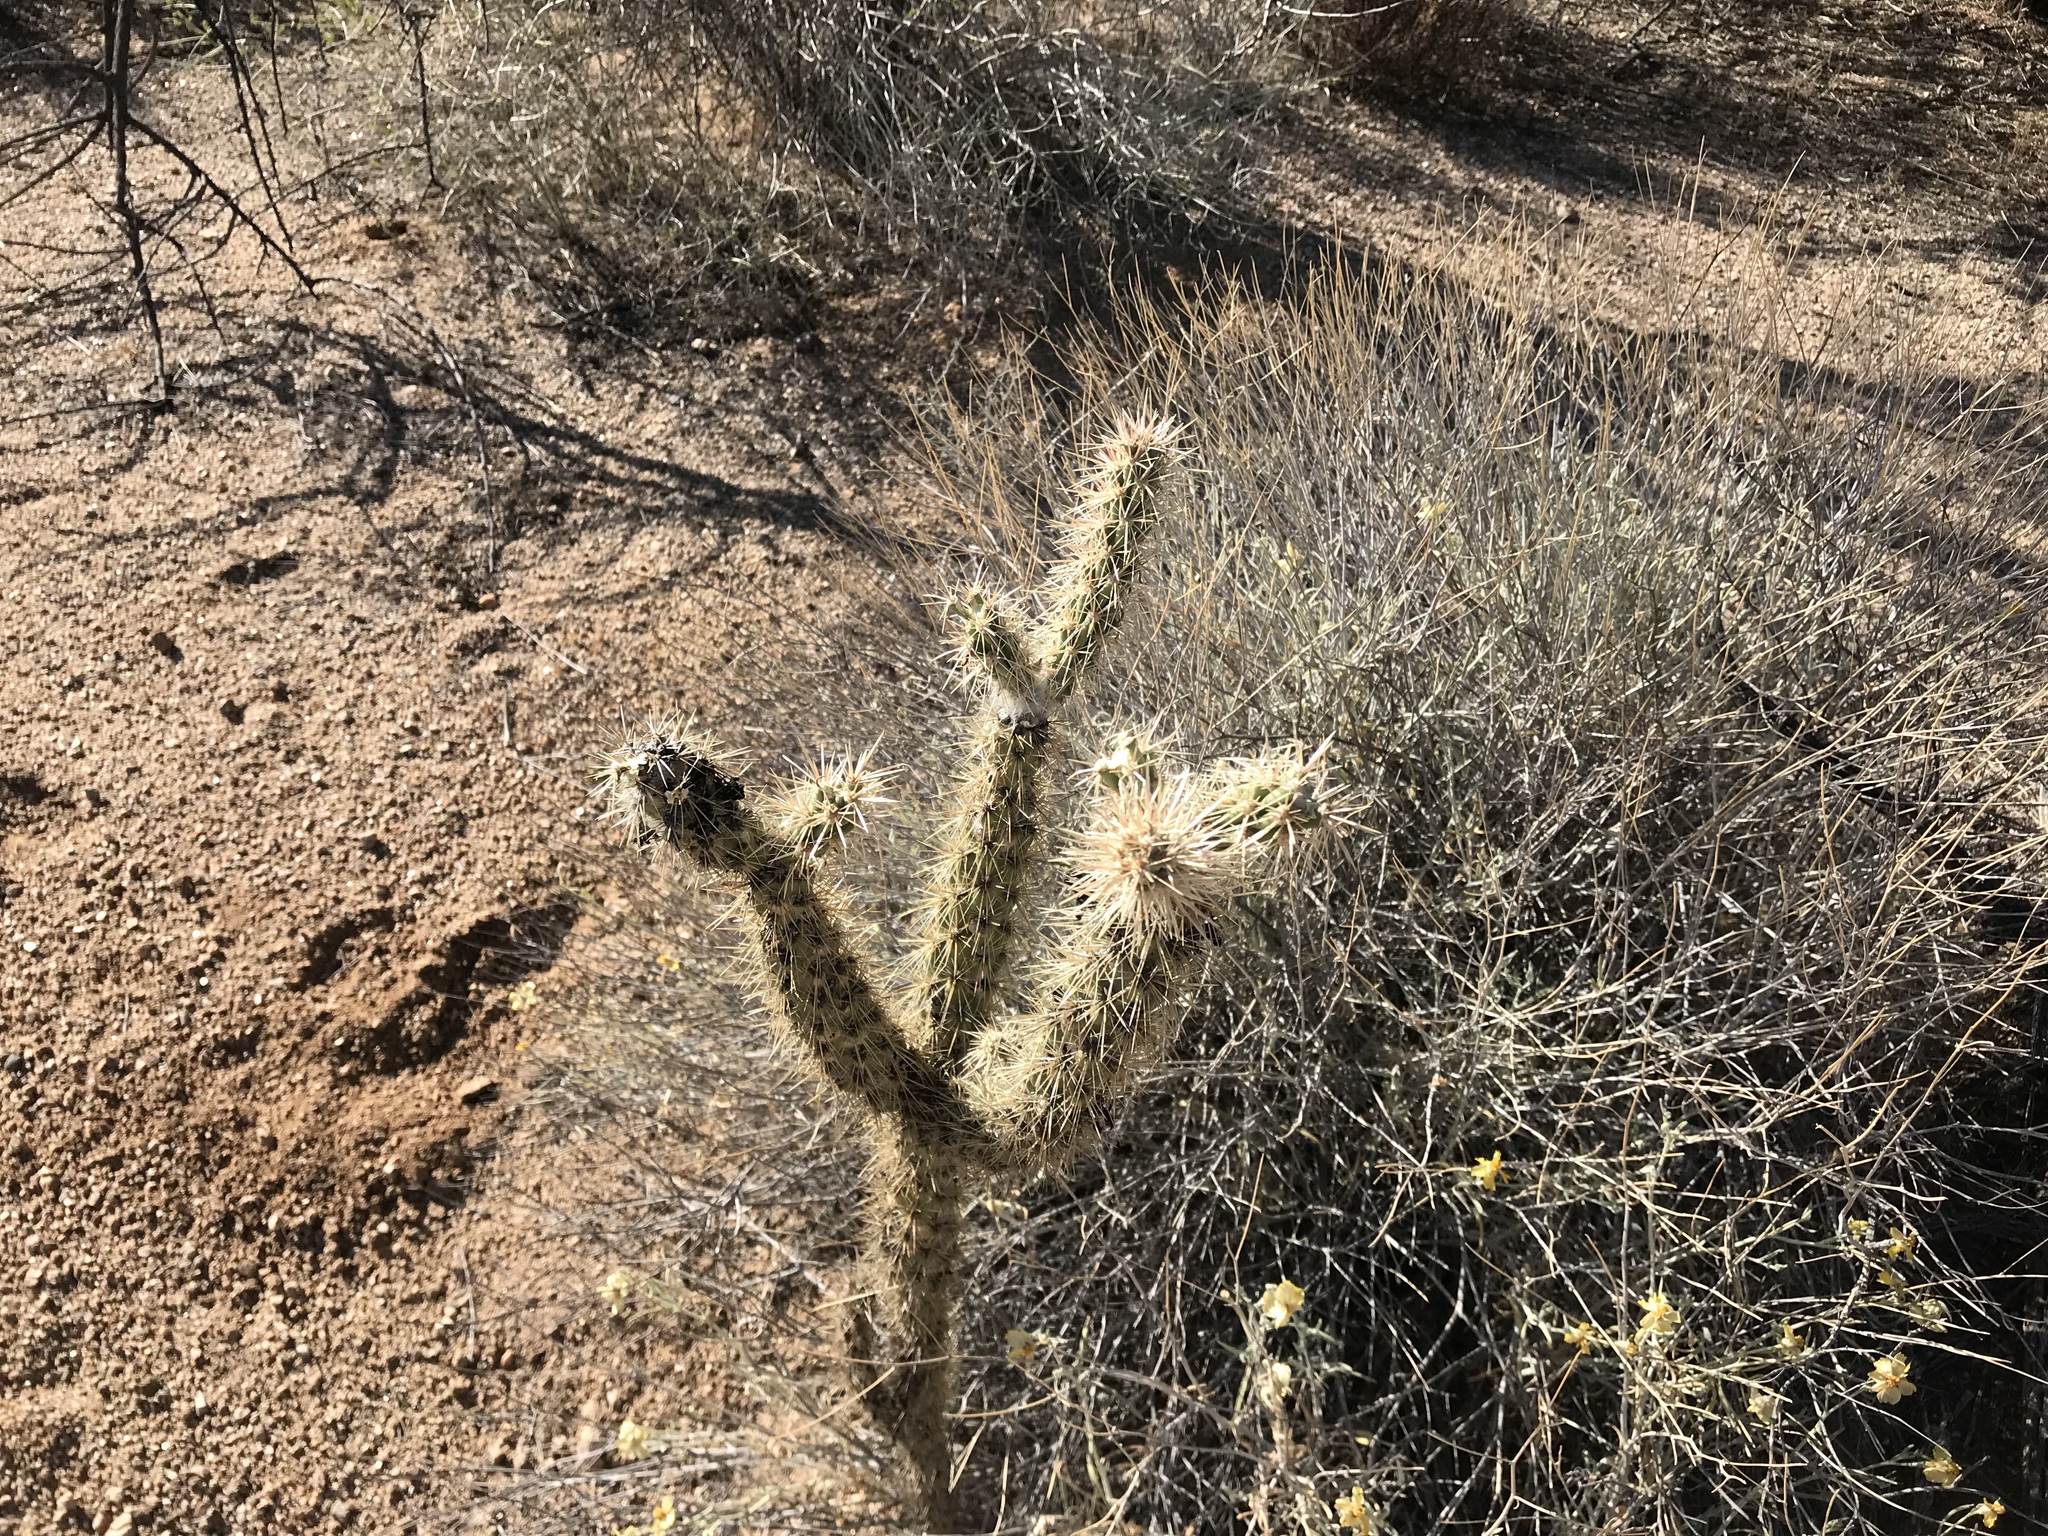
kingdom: Plantae
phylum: Tracheophyta
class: Magnoliopsida
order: Caryophyllales
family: Cactaceae
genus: Cylindropuntia
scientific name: Cylindropuntia echinocarpa
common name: Ground cholla
